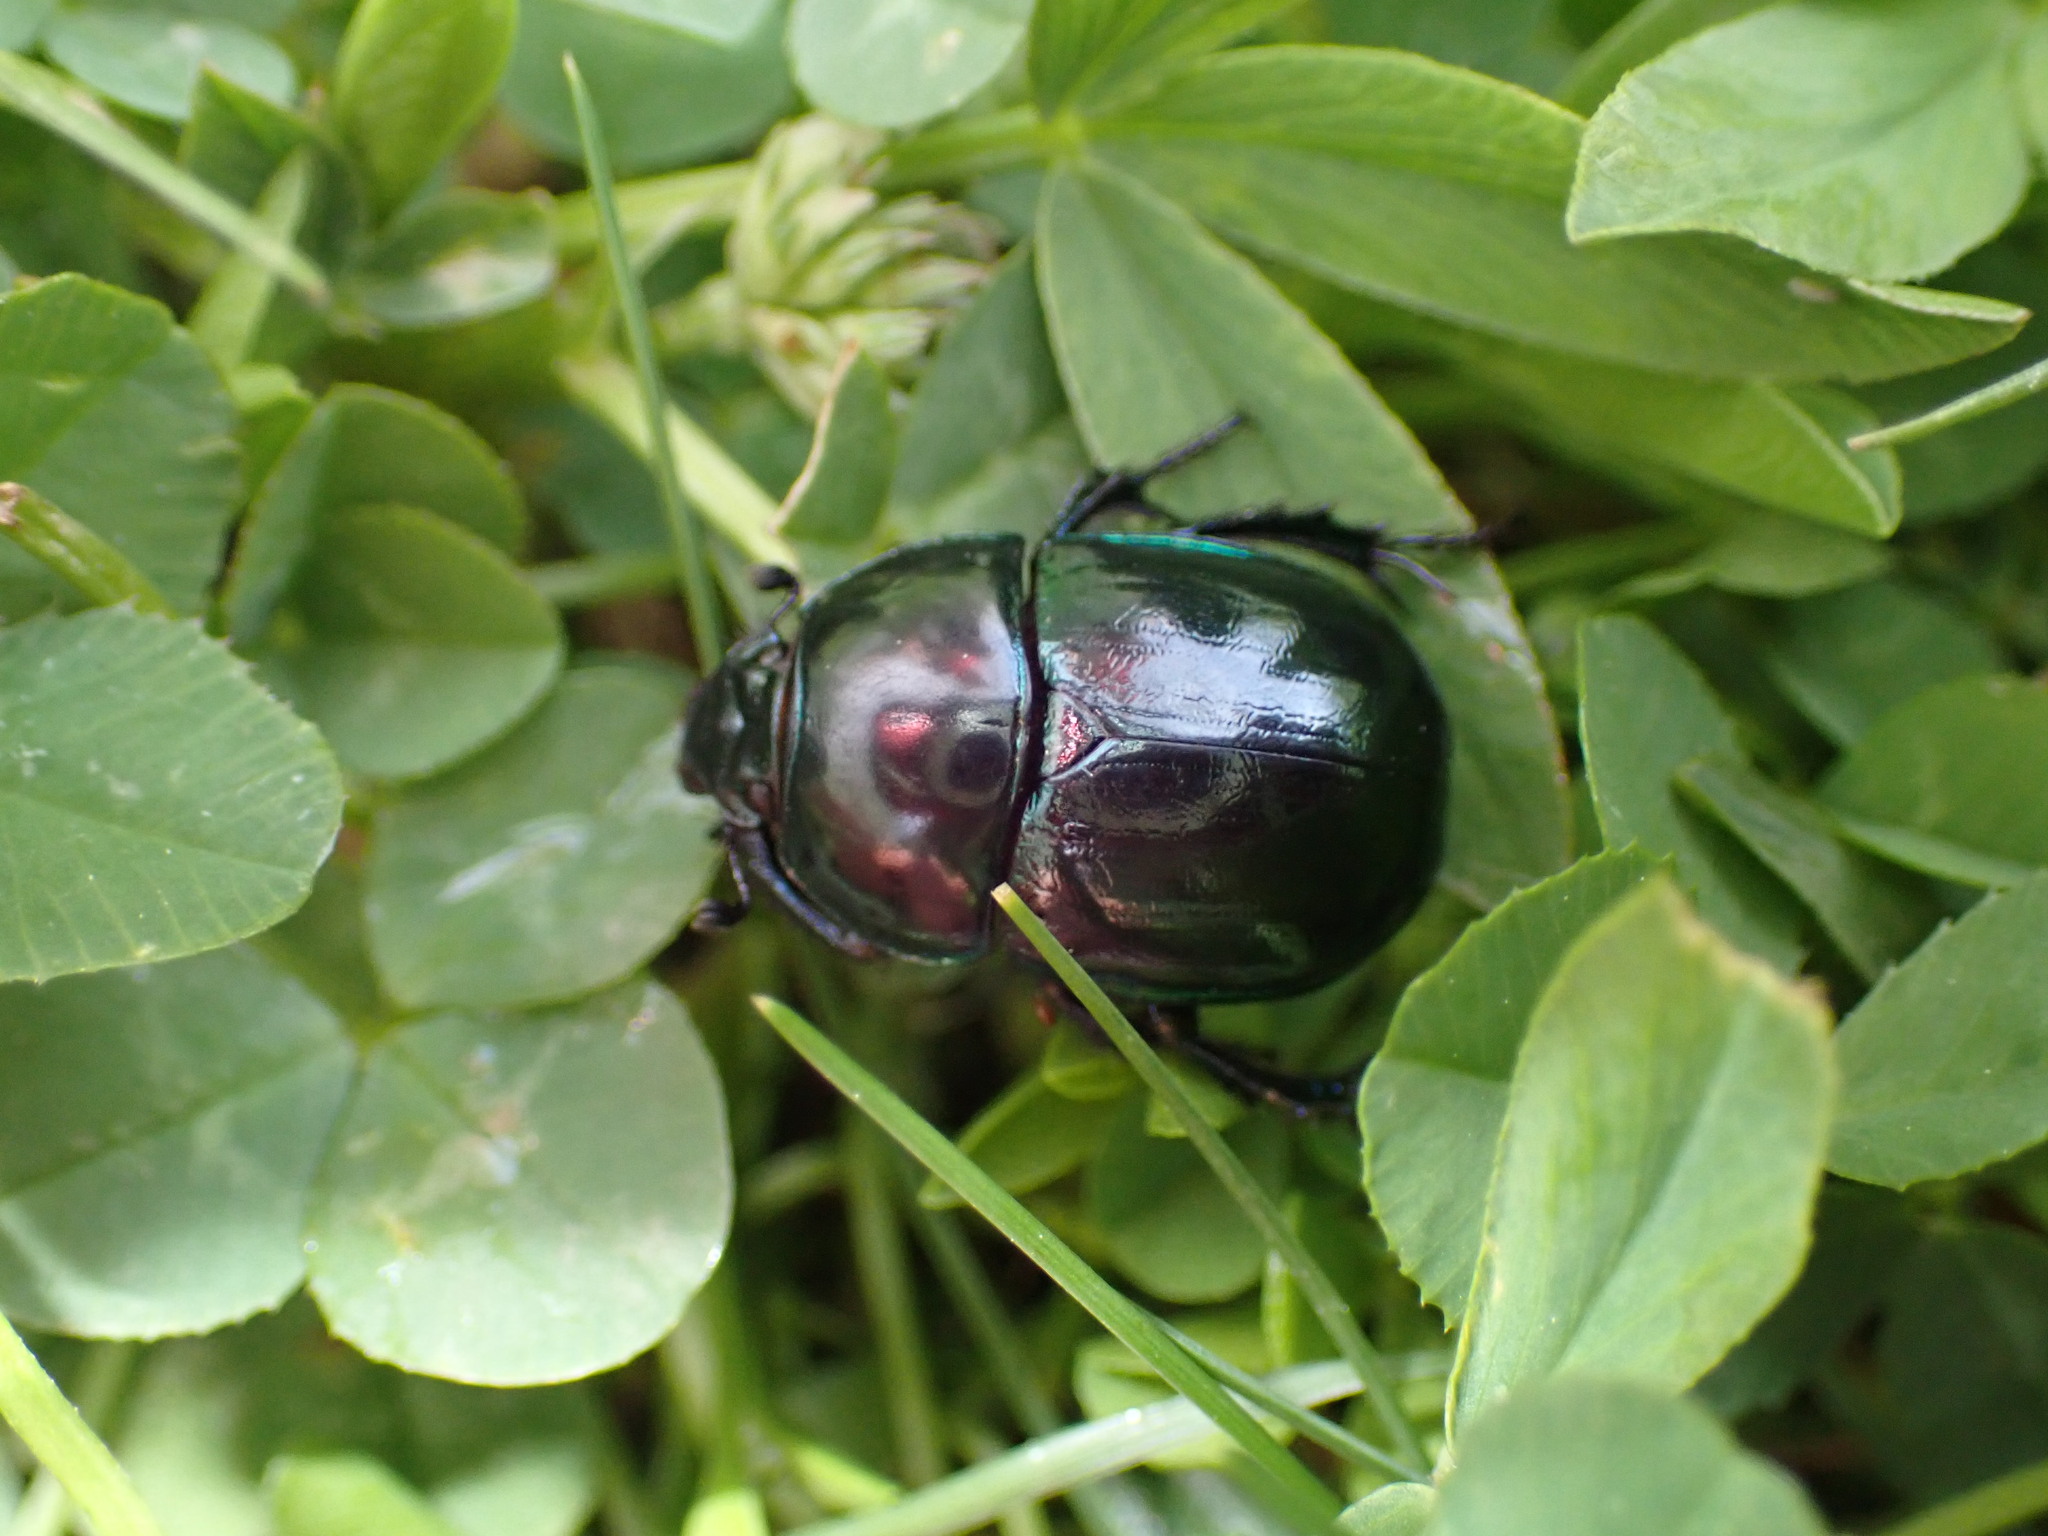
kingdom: Animalia
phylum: Arthropoda
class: Insecta
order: Coleoptera
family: Geotrupidae
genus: Trypocopris
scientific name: Trypocopris pyrenaeus
